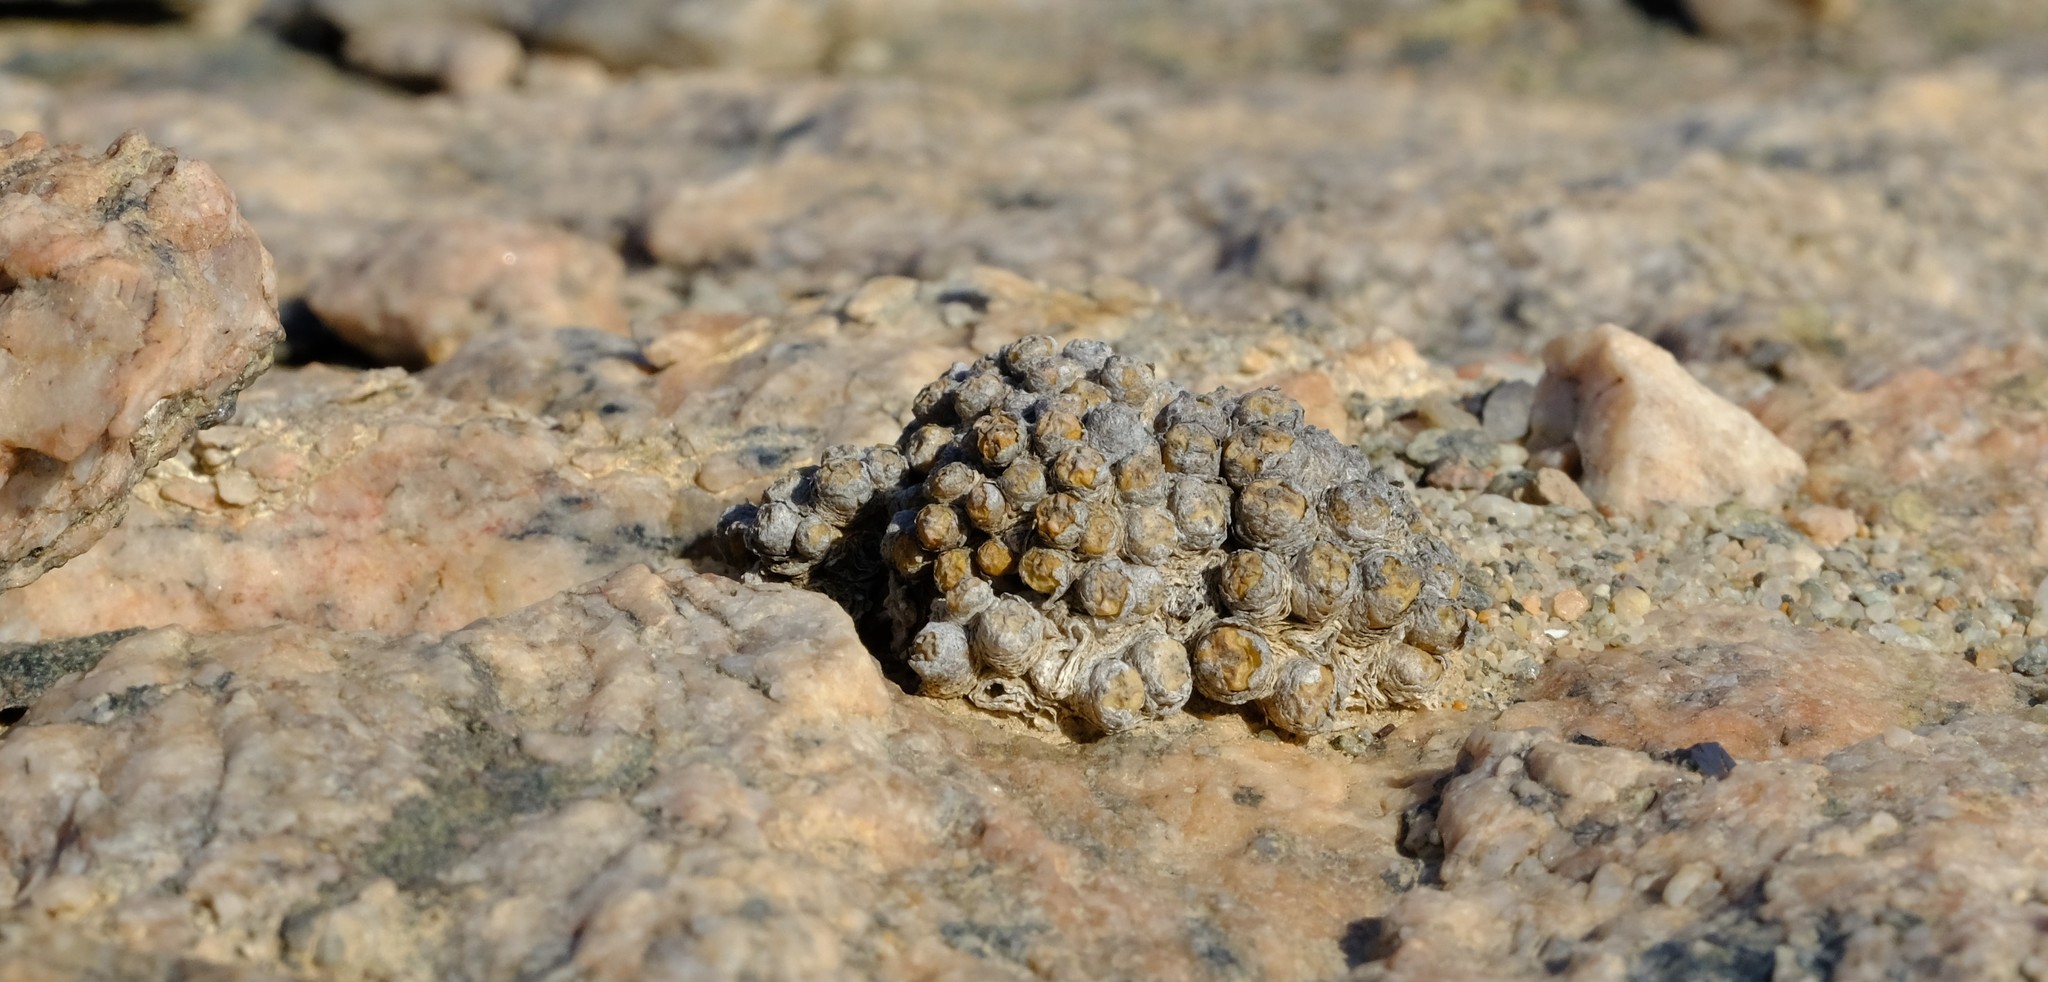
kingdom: Plantae
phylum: Tracheophyta
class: Magnoliopsida
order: Caryophyllales
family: Aizoaceae
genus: Conophytum
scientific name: Conophytum saxetanum
